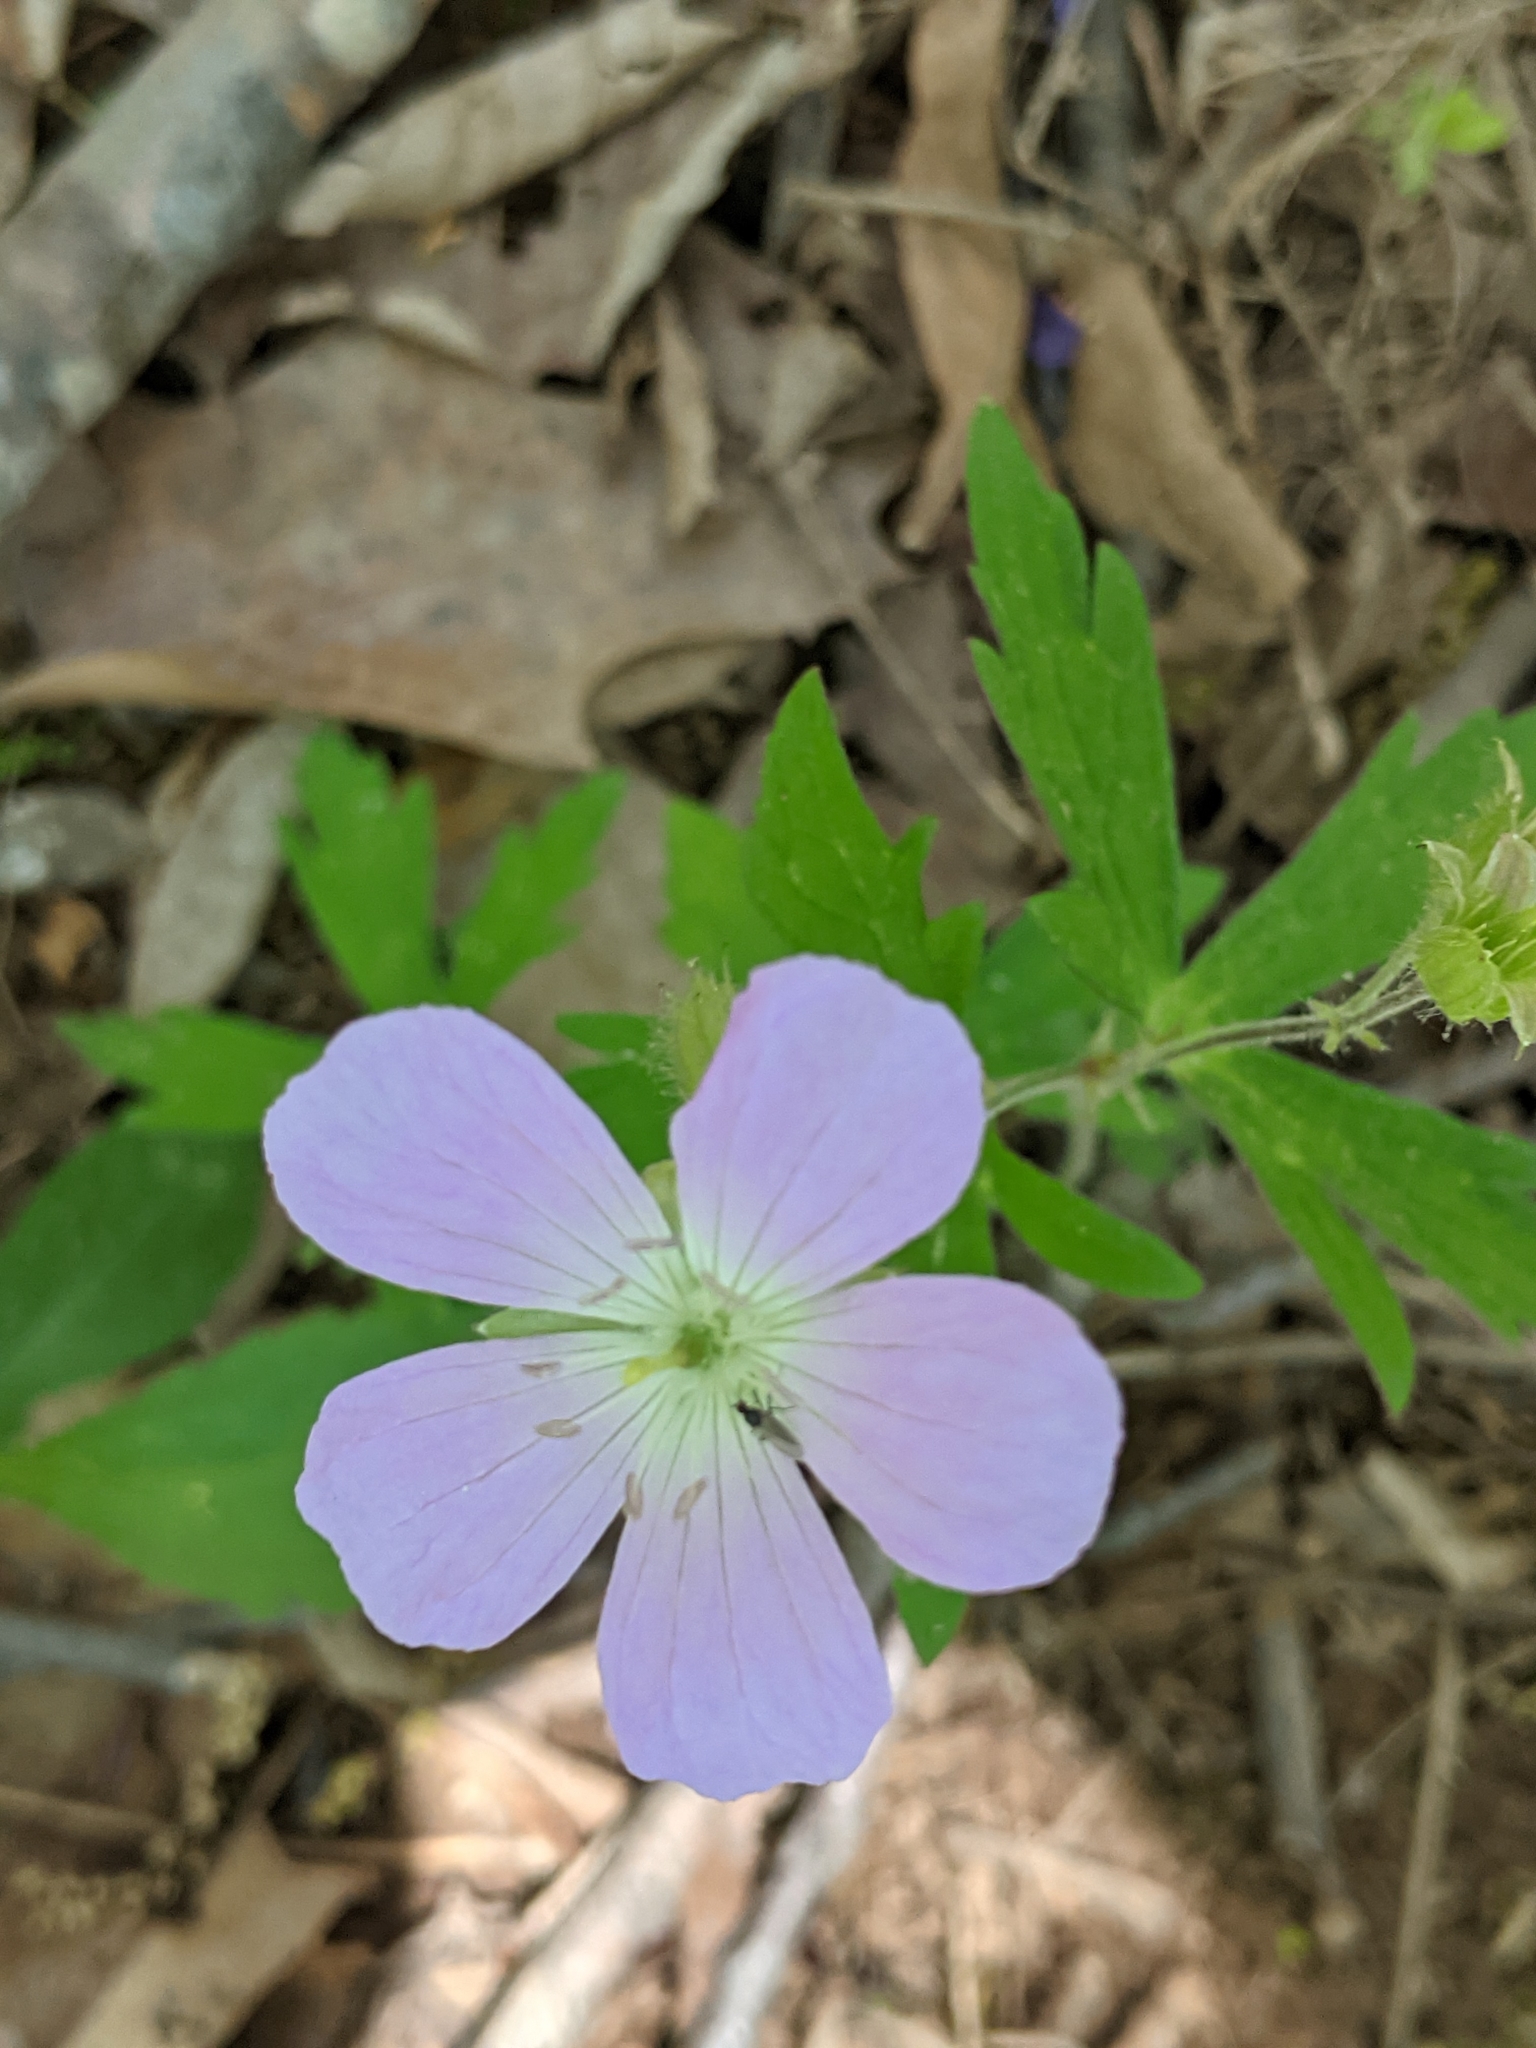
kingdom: Plantae
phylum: Tracheophyta
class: Magnoliopsida
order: Geraniales
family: Geraniaceae
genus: Geranium
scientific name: Geranium maculatum
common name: Spotted geranium
